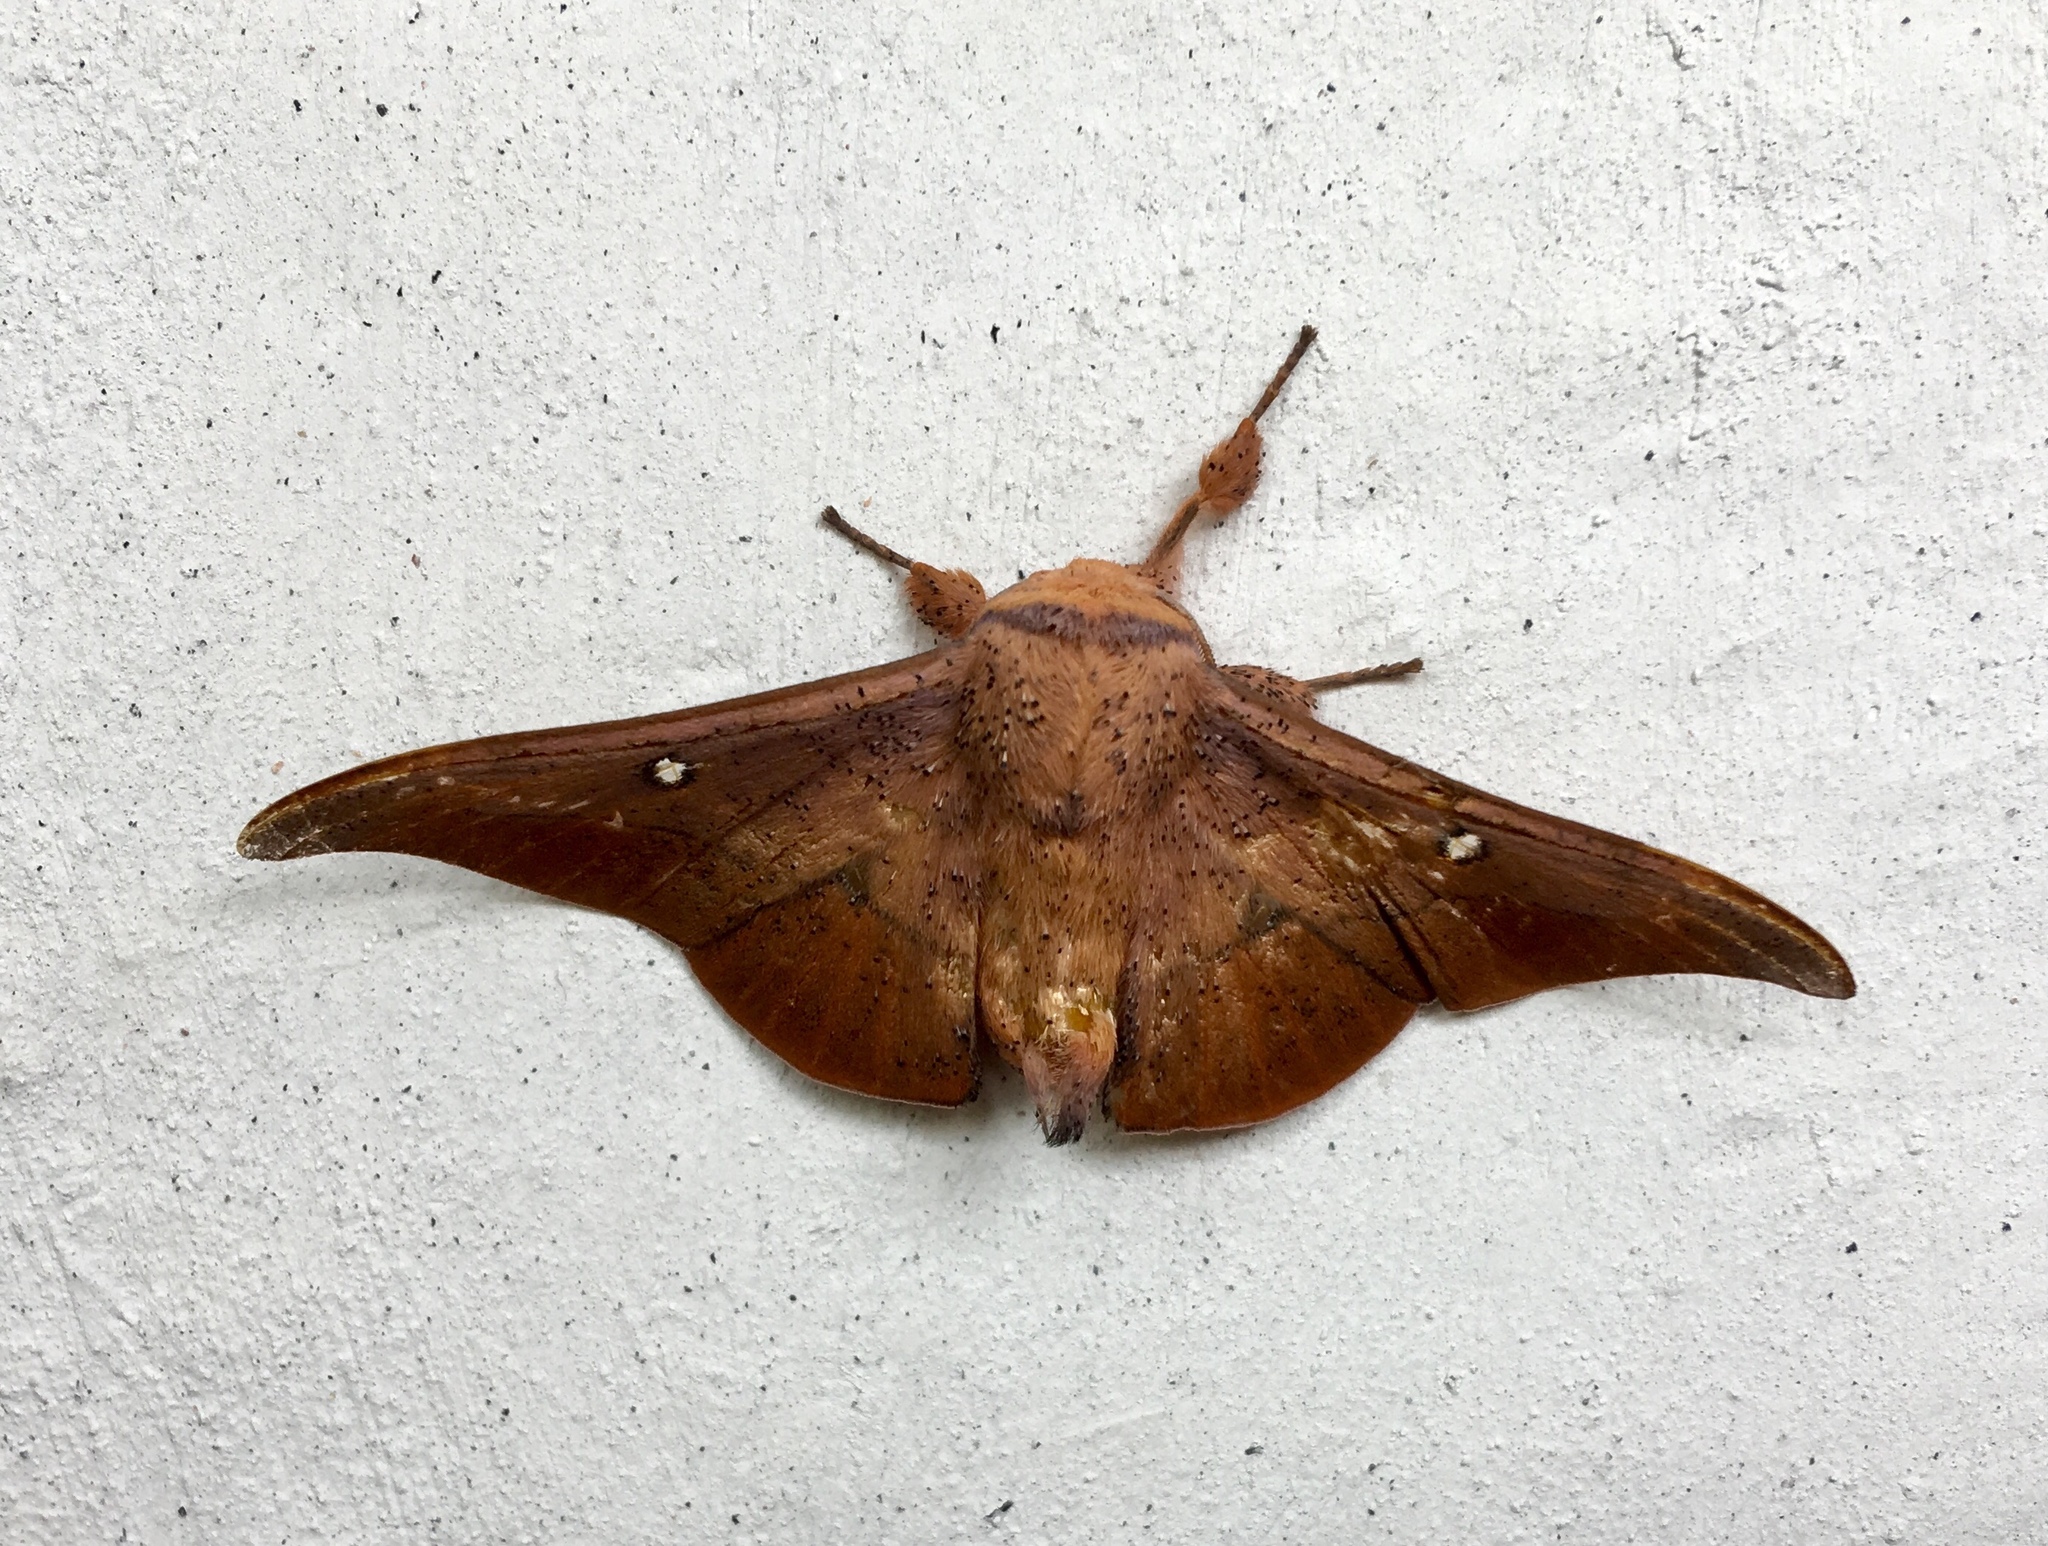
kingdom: Animalia
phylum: Arthropoda
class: Insecta
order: Lepidoptera
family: Mimallonidae
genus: Isoscella
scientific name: Isoscella
